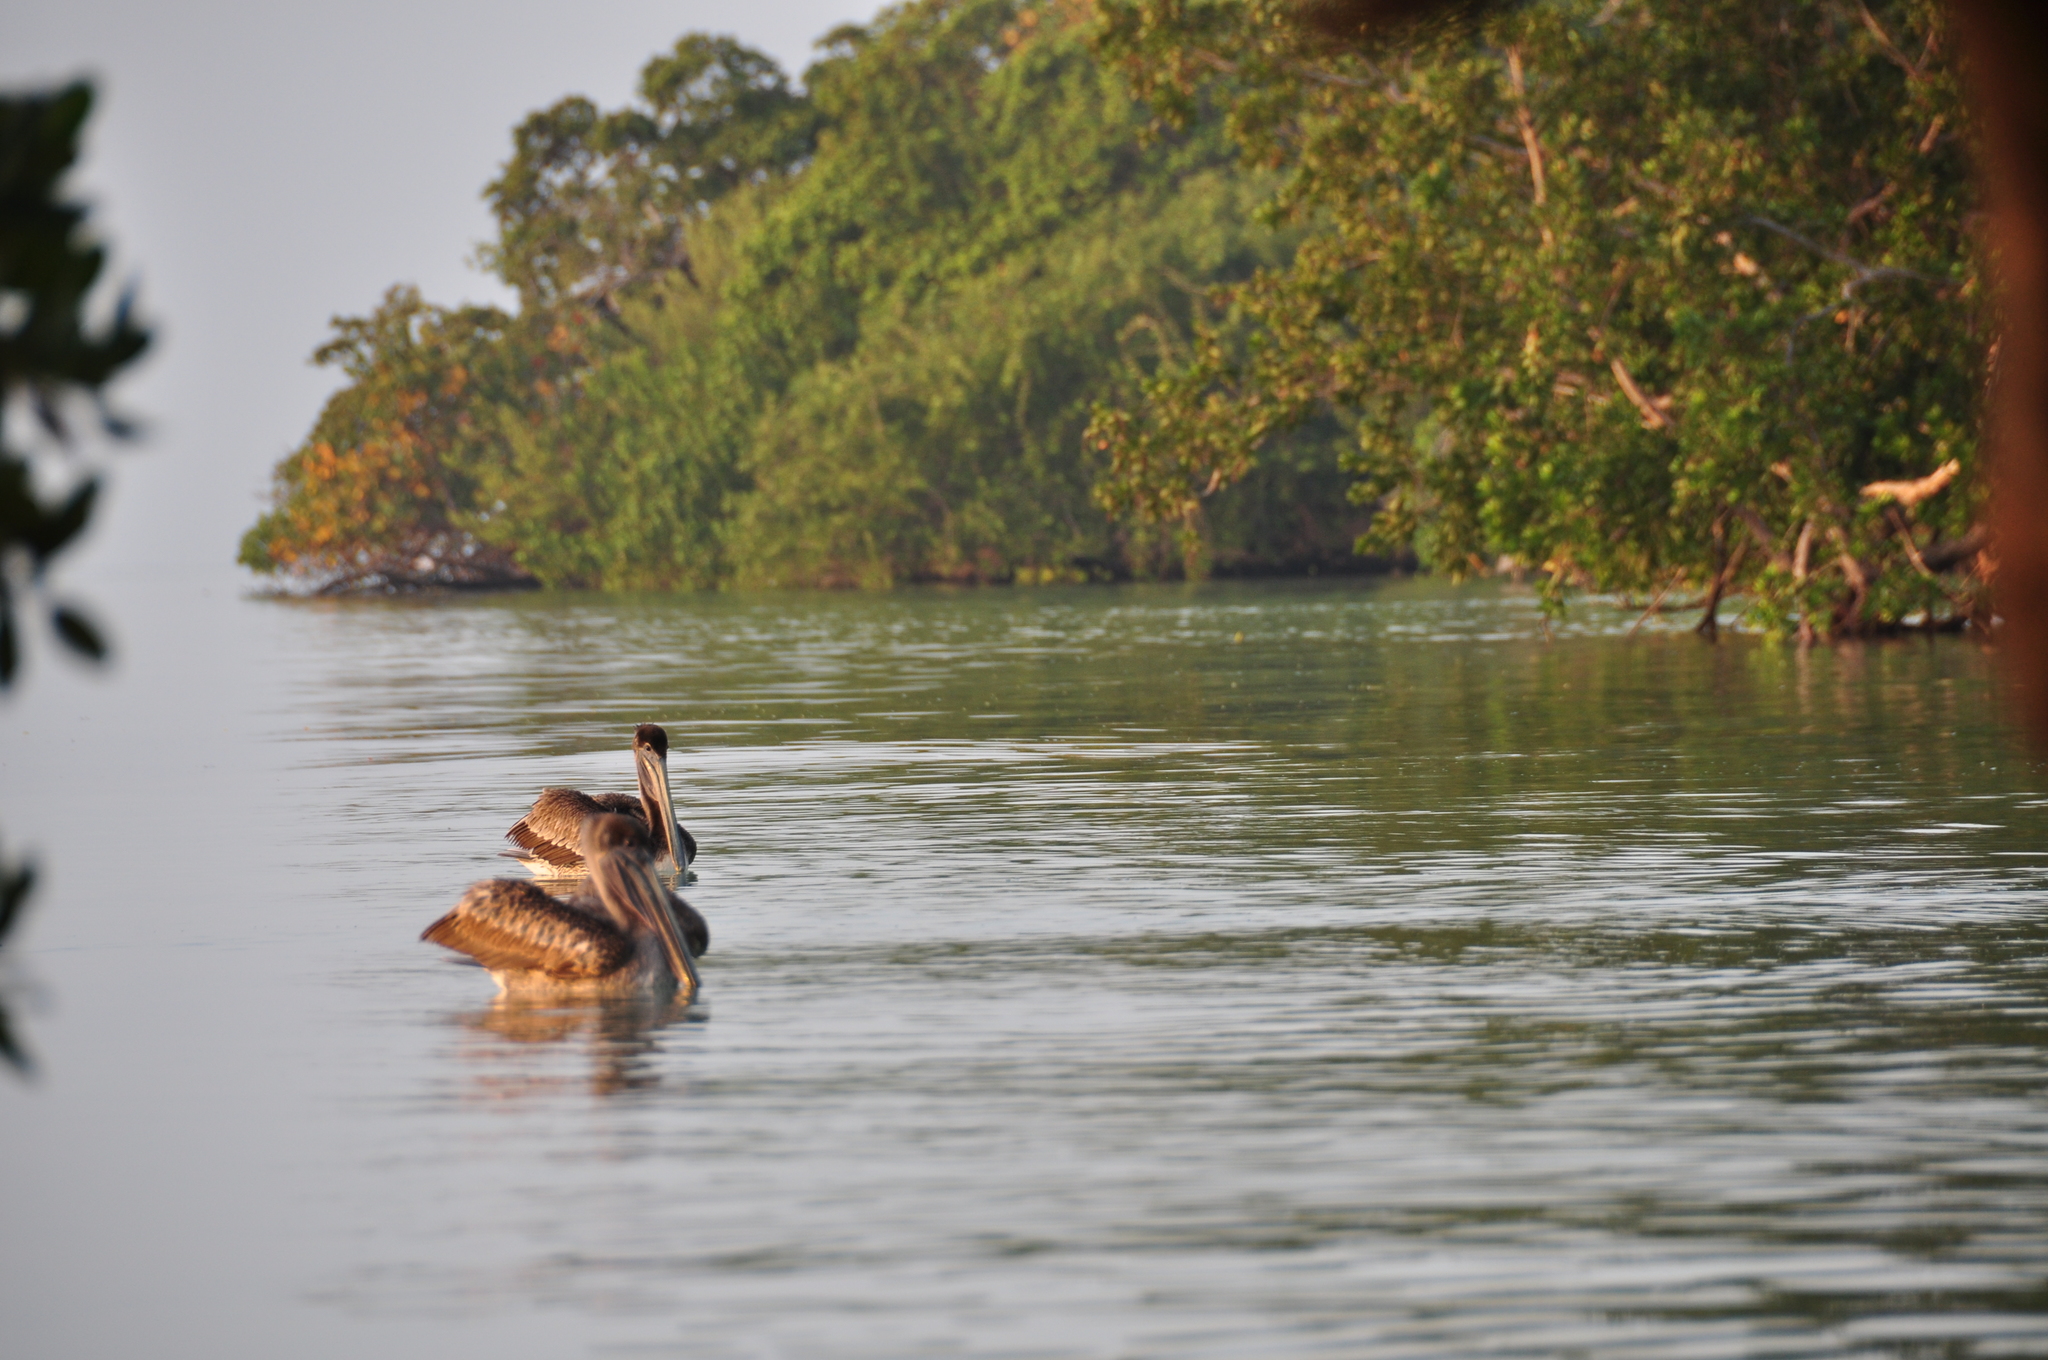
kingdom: Animalia
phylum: Chordata
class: Aves
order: Pelecaniformes
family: Pelecanidae
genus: Pelecanus
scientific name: Pelecanus occidentalis
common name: Brown pelican
